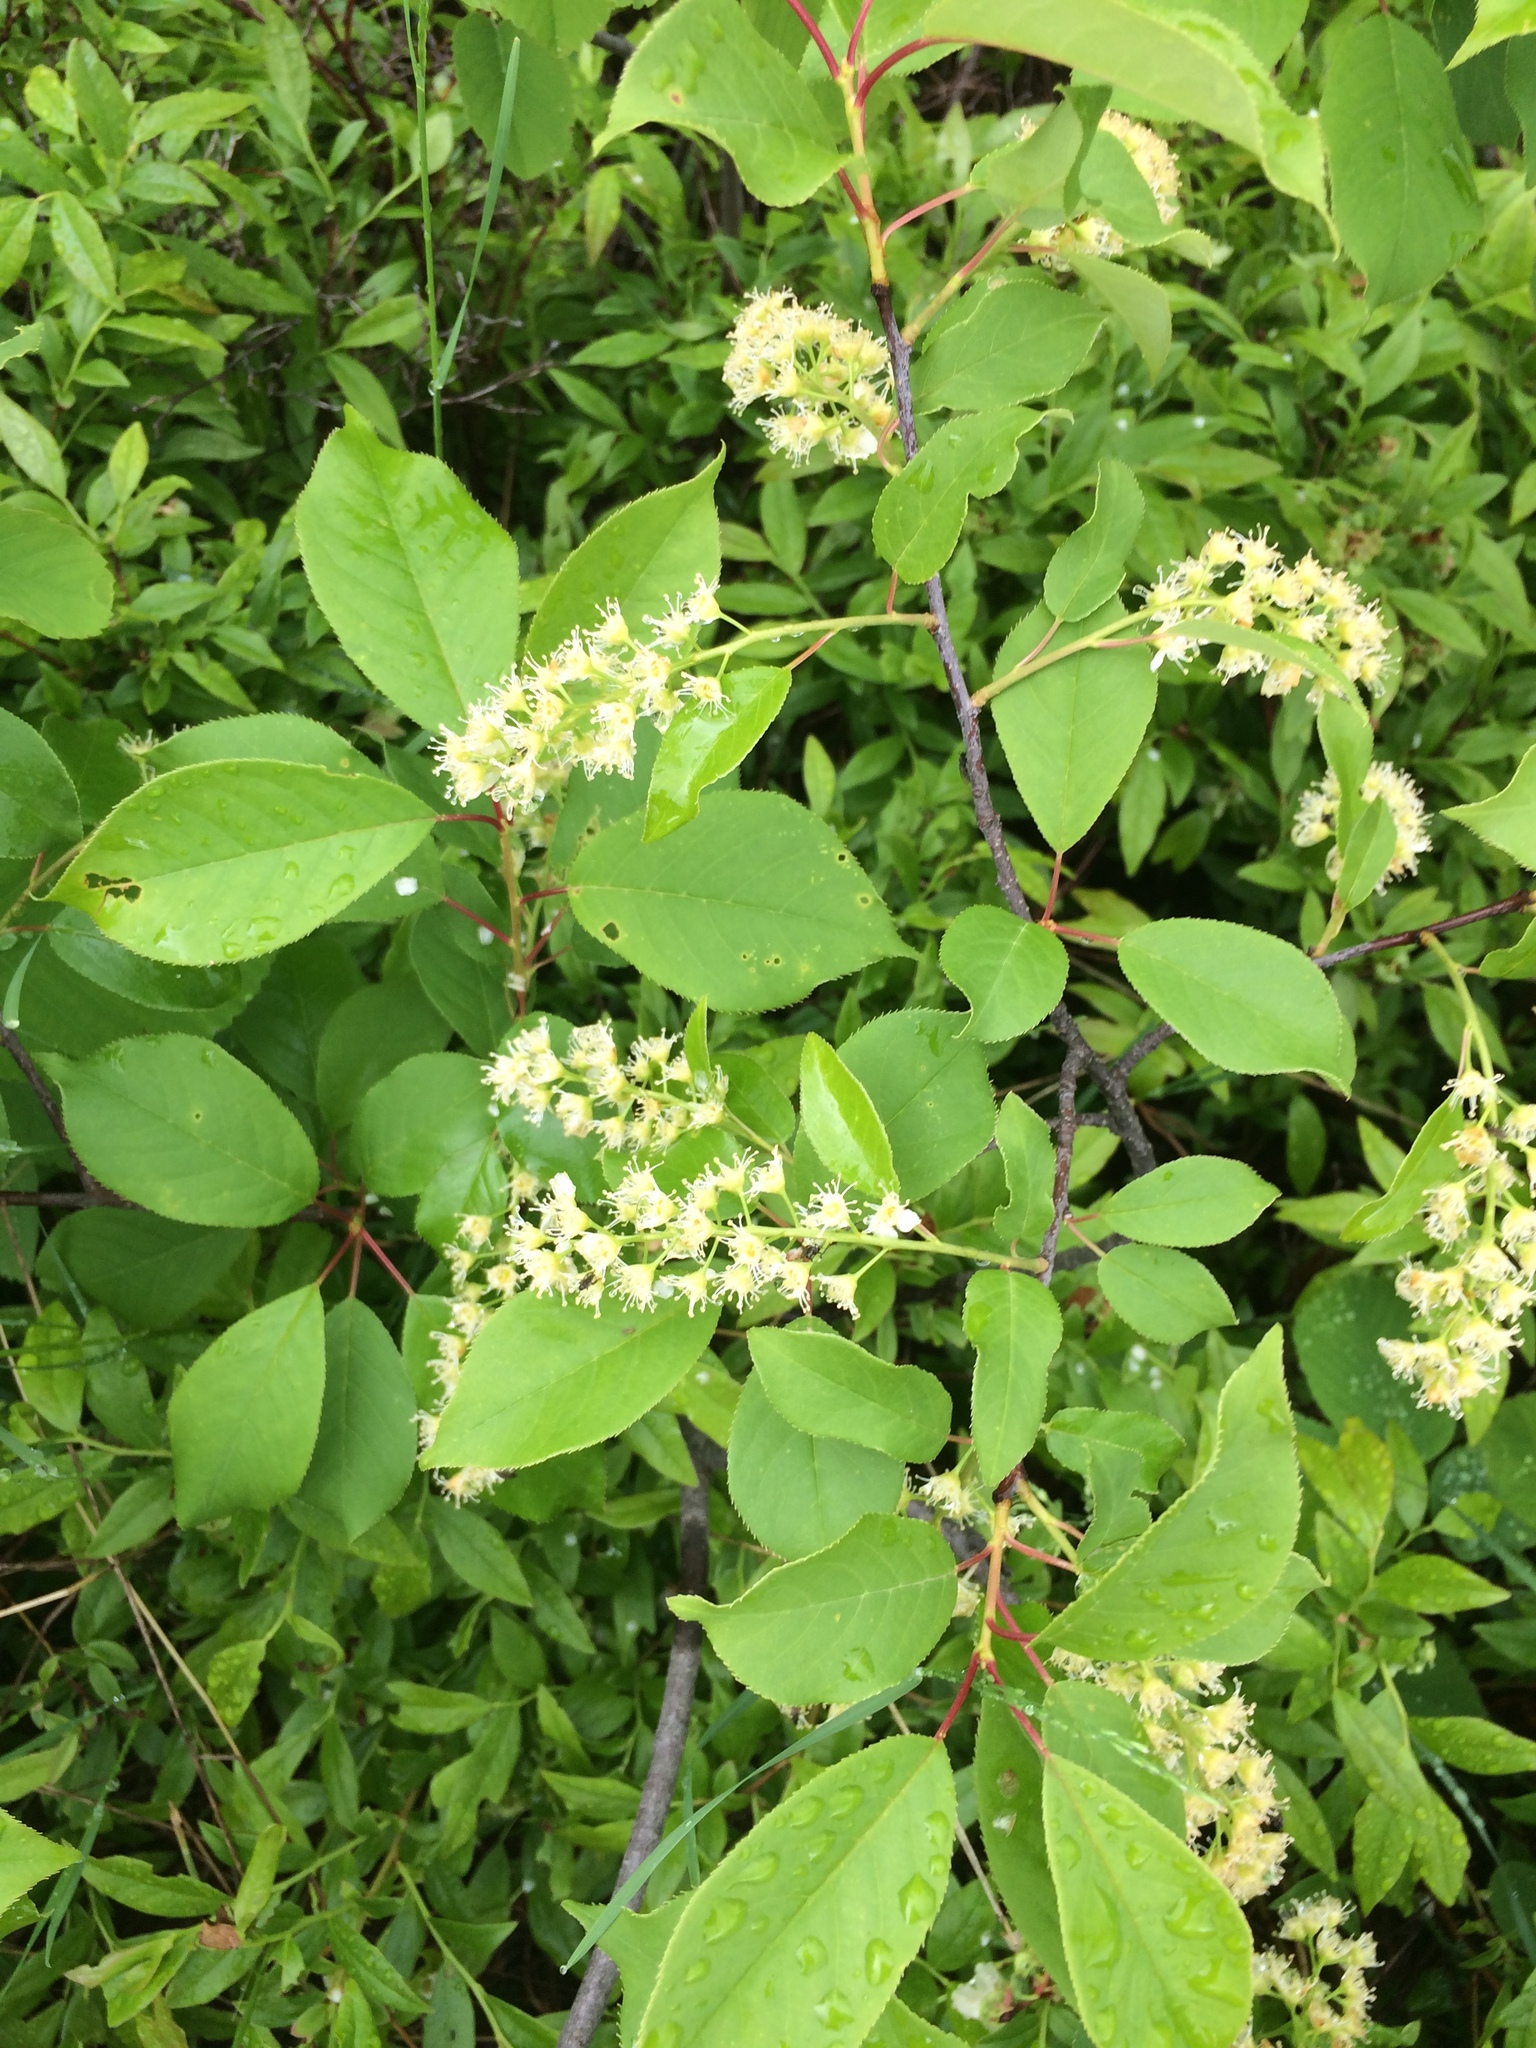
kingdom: Plantae
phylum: Tracheophyta
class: Magnoliopsida
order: Rosales
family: Rosaceae
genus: Prunus
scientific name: Prunus virginiana
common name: Chokecherry
